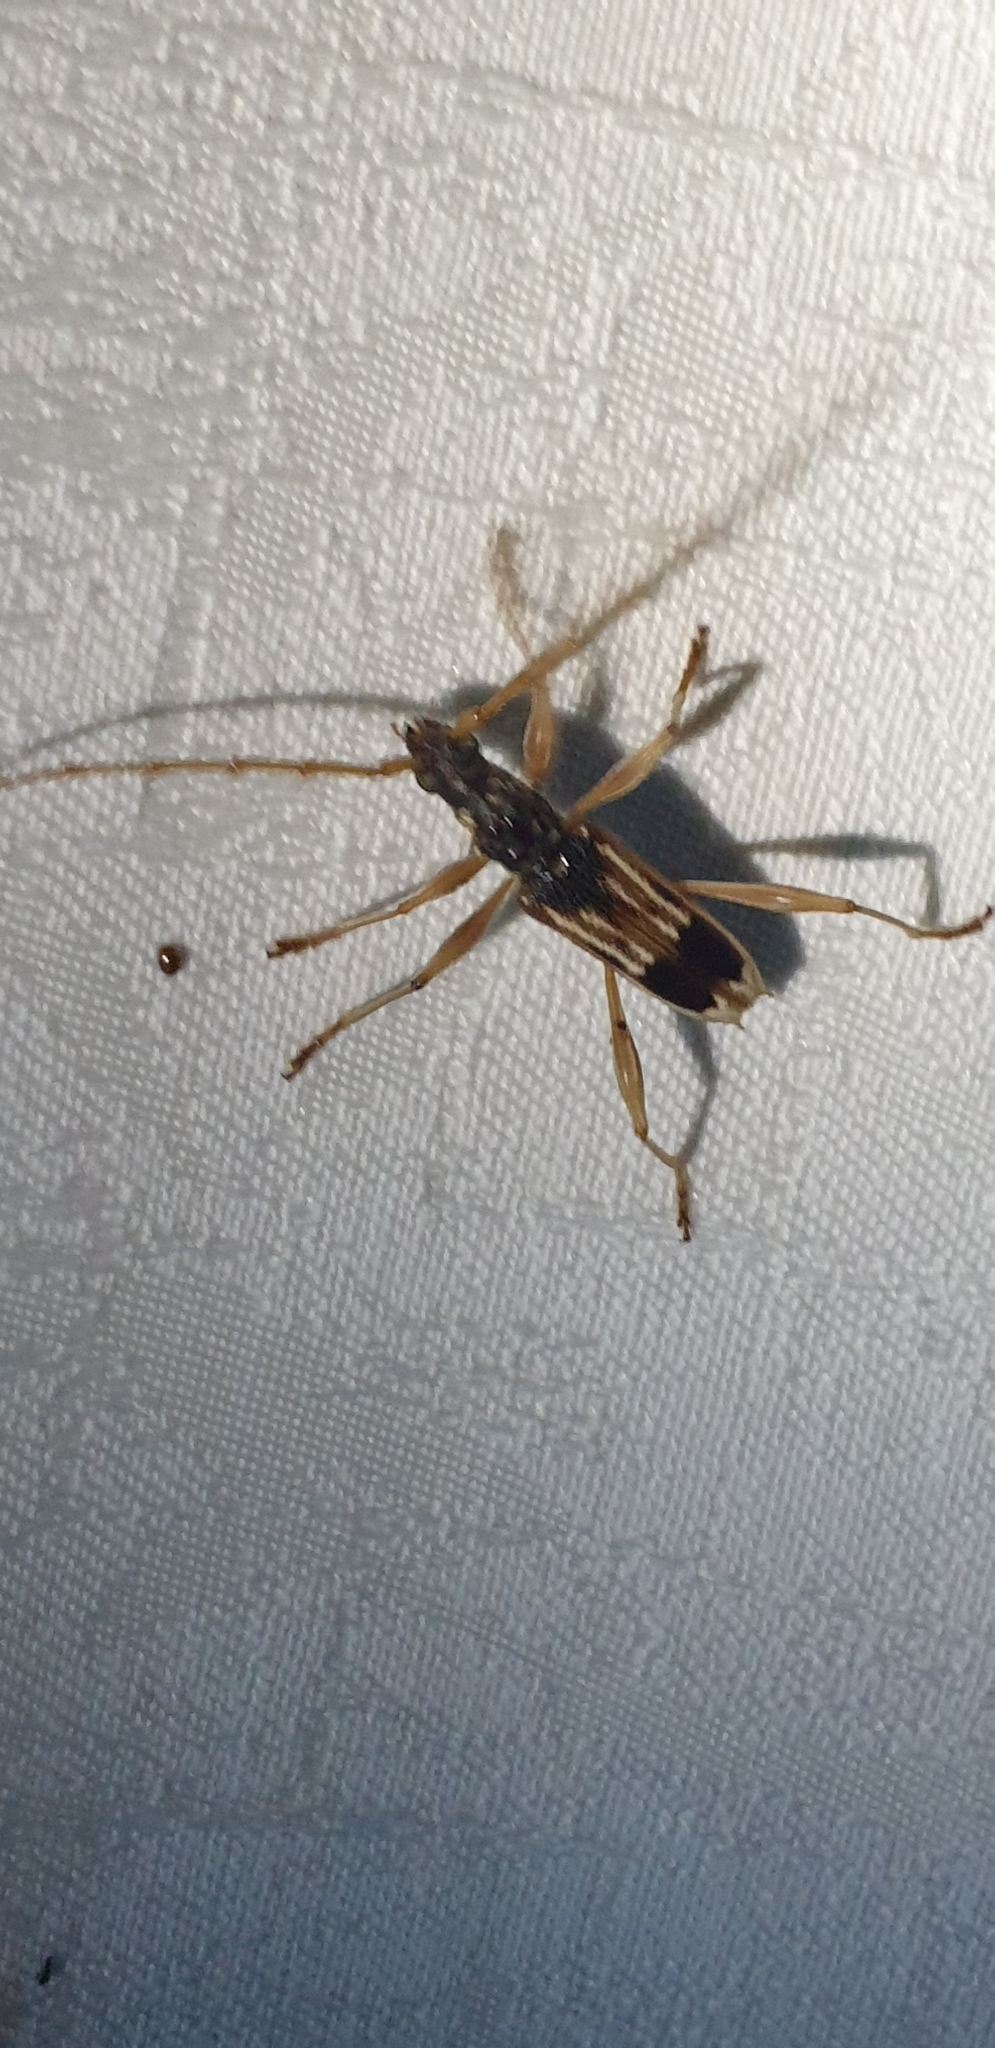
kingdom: Animalia
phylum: Arthropoda
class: Insecta
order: Coleoptera
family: Cerambycidae
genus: Coptocercus
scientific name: Coptocercus trimaculatus
